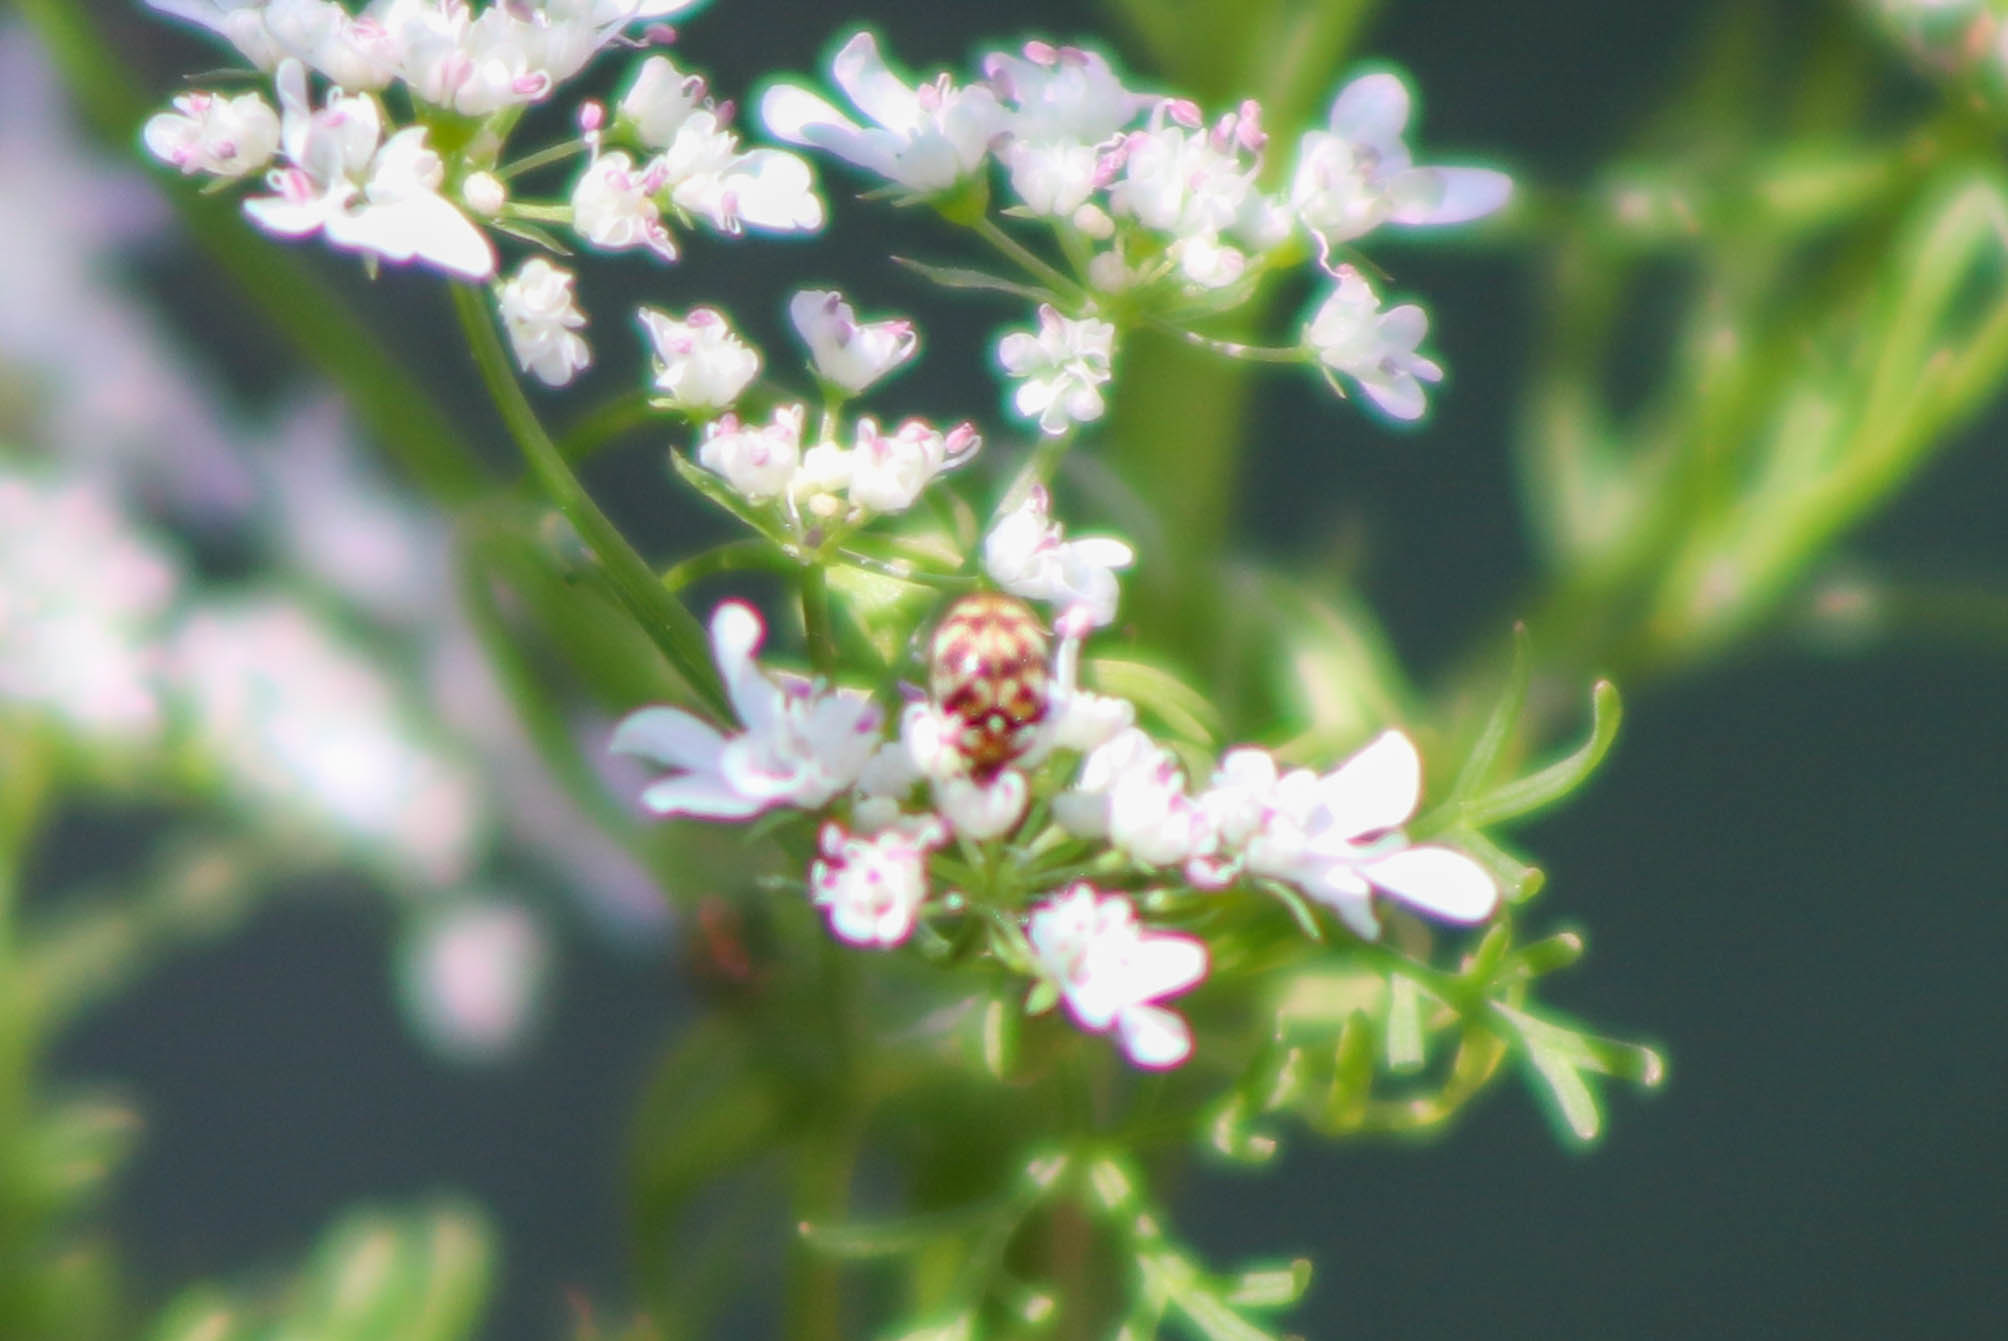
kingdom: Animalia
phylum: Arthropoda
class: Insecta
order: Coleoptera
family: Dermestidae
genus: Anthrenus
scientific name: Anthrenus verbasci
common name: Varied carpet beetle
